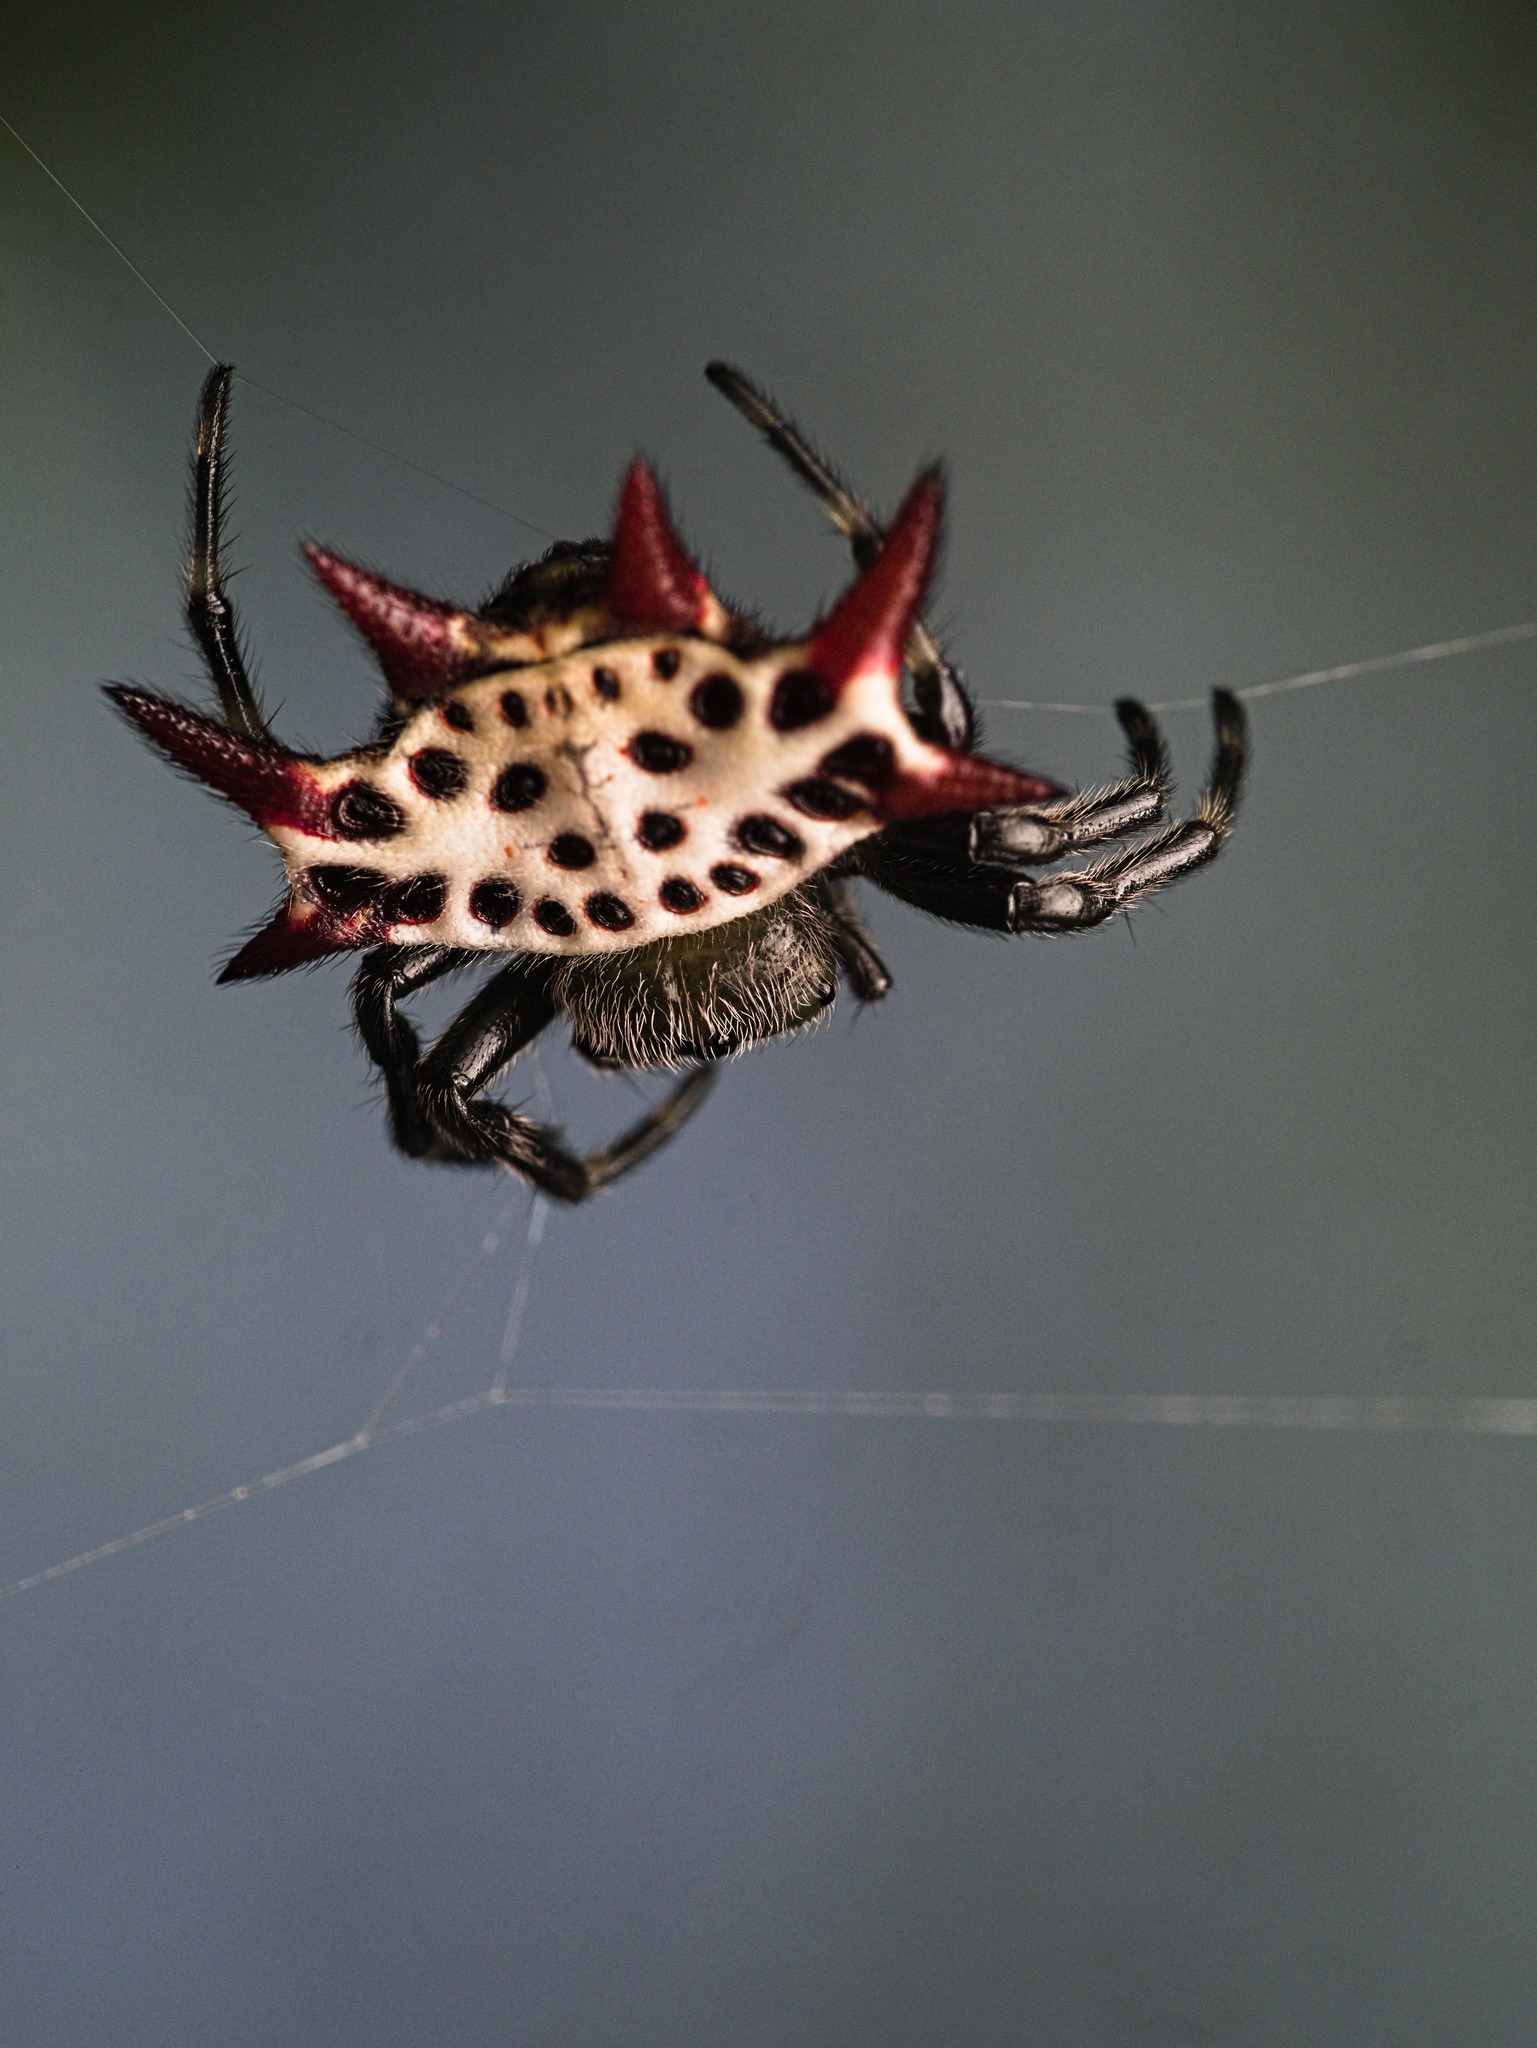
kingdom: Animalia
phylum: Arthropoda
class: Arachnida
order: Araneae
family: Araneidae
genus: Gasteracantha
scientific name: Gasteracantha cancriformis
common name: Orb weavers
